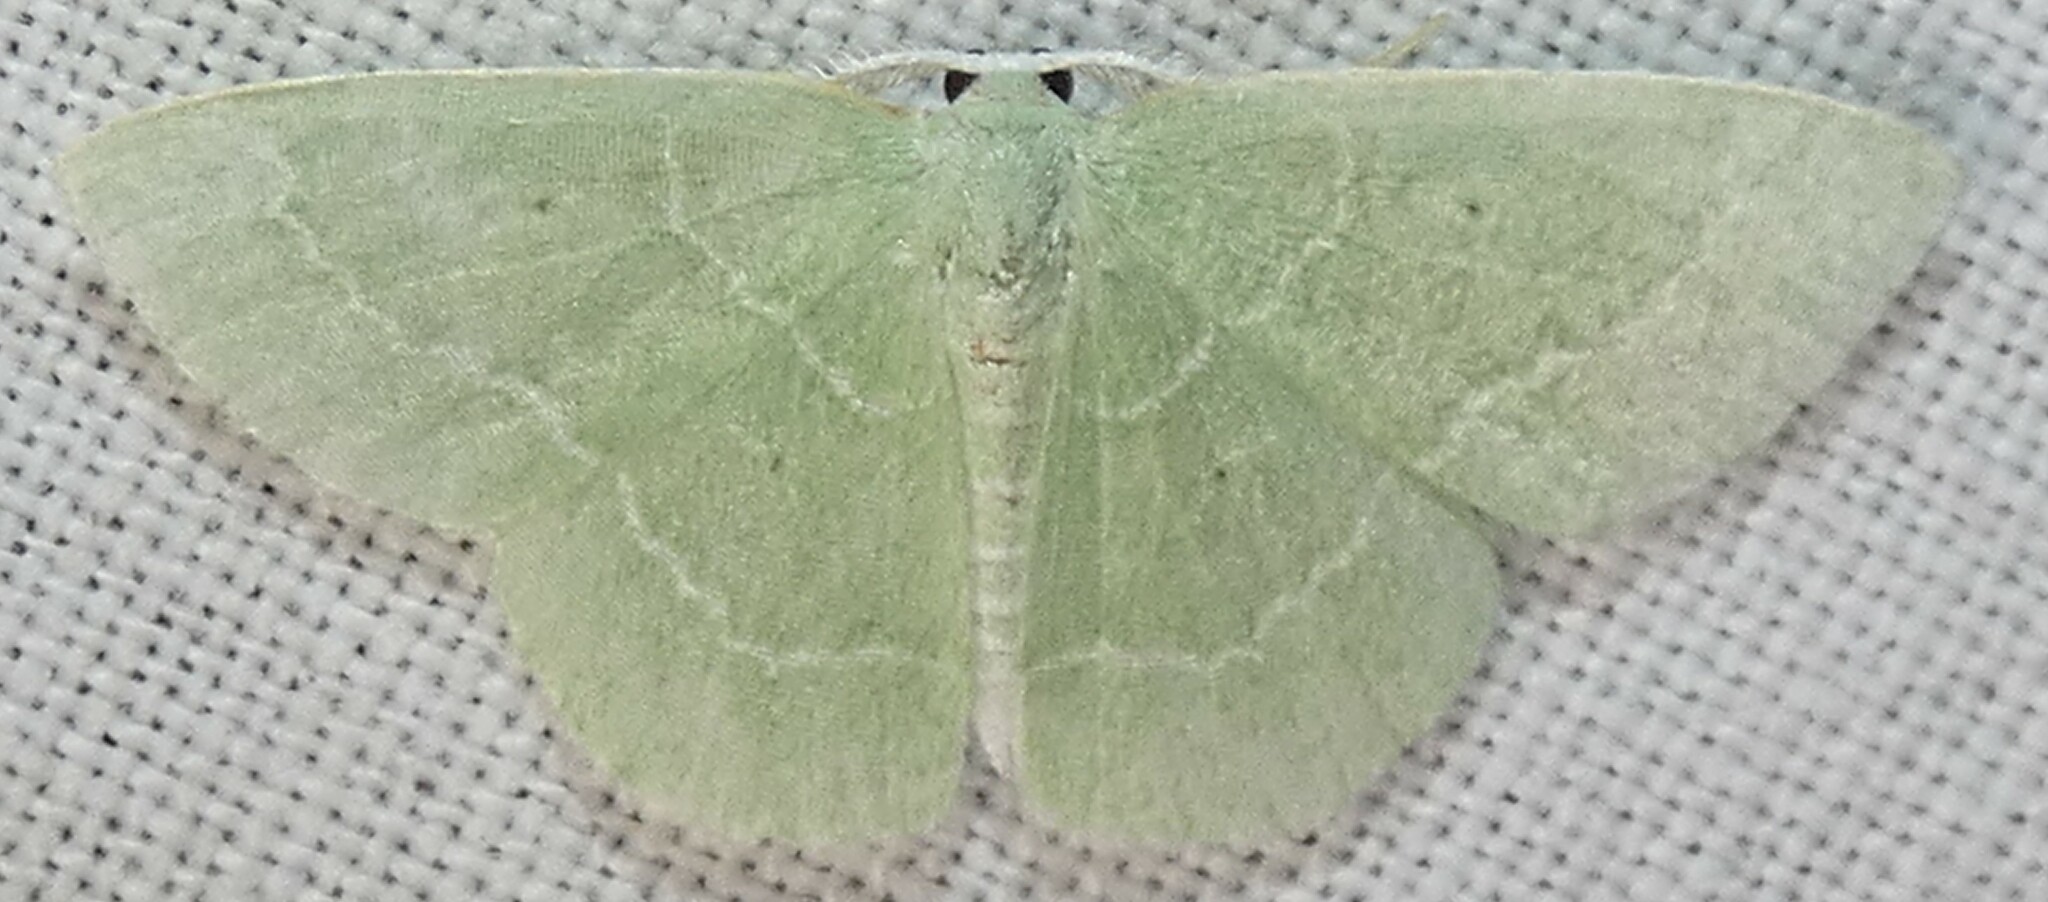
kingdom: Animalia
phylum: Arthropoda
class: Insecta
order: Lepidoptera
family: Geometridae
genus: Nemoria
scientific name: Nemoria elfa
